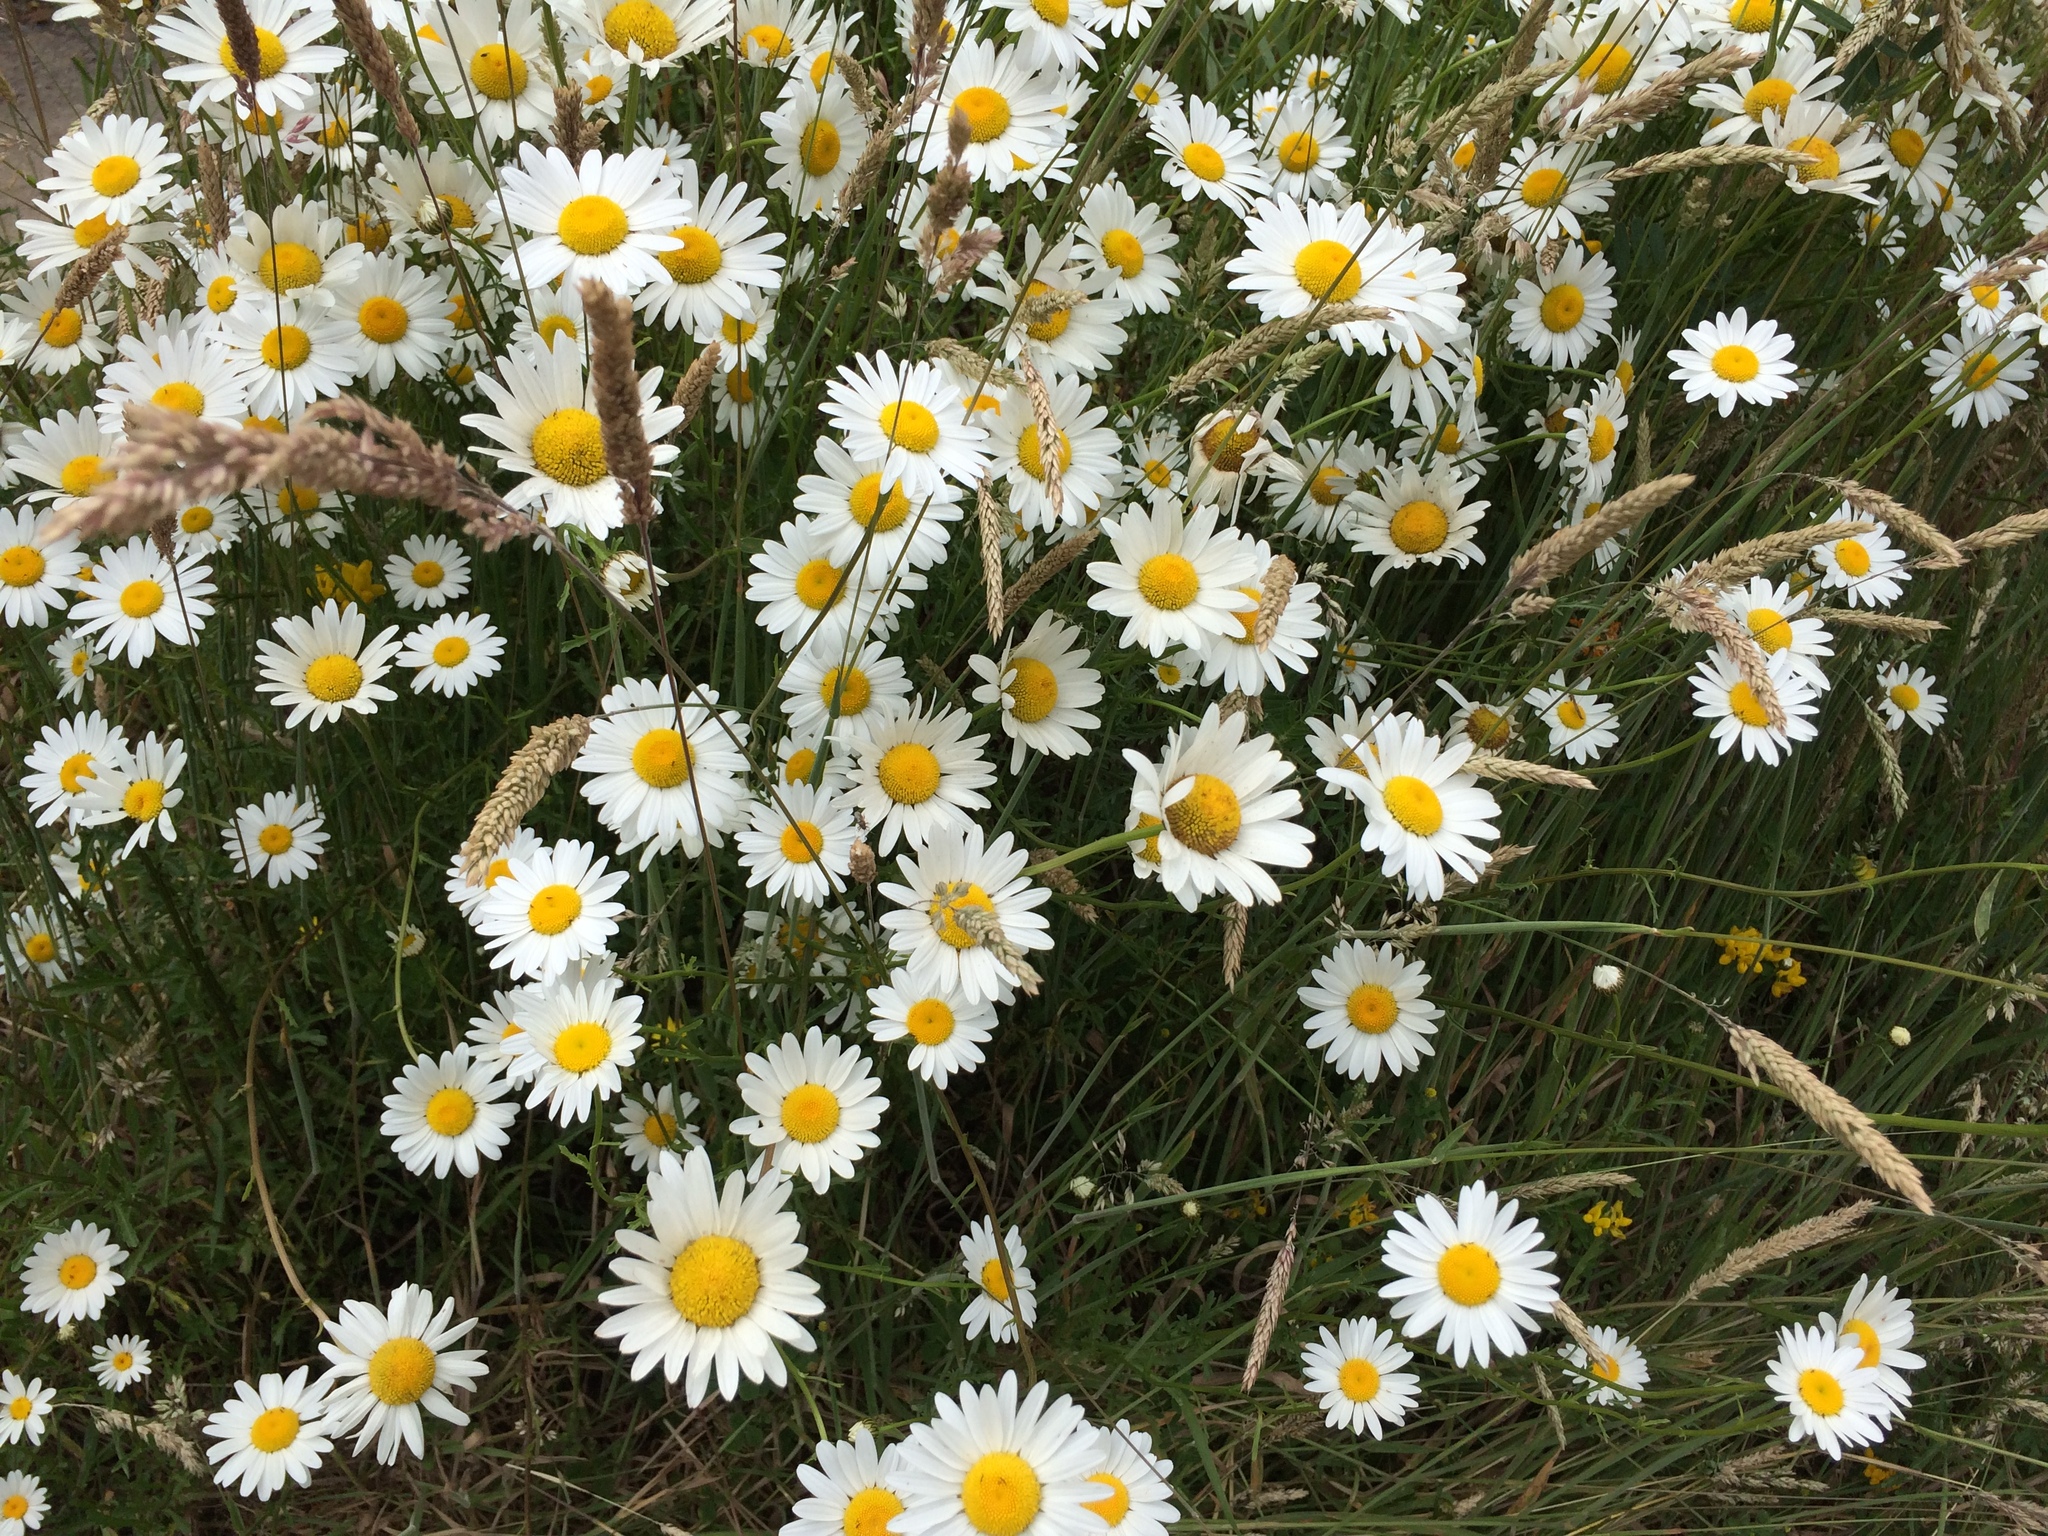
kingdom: Plantae
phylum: Tracheophyta
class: Magnoliopsida
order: Asterales
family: Asteraceae
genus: Leucanthemum
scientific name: Leucanthemum vulgare
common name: Oxeye daisy
